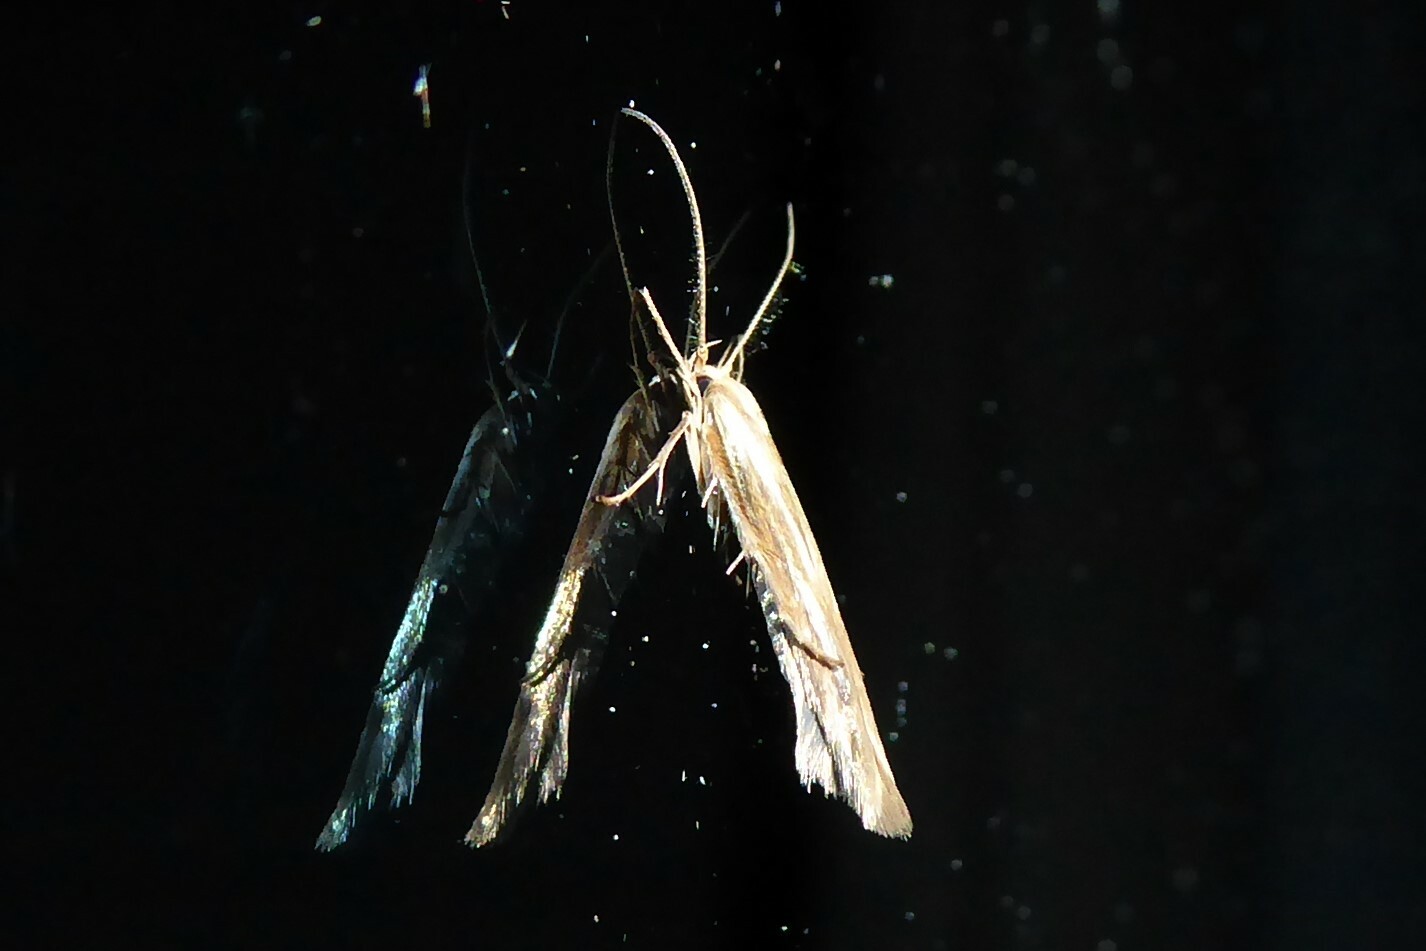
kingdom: Animalia
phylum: Arthropoda
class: Insecta
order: Lepidoptera
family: Stathmopodidae
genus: Stathmopoda
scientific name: Stathmopoda aposema
